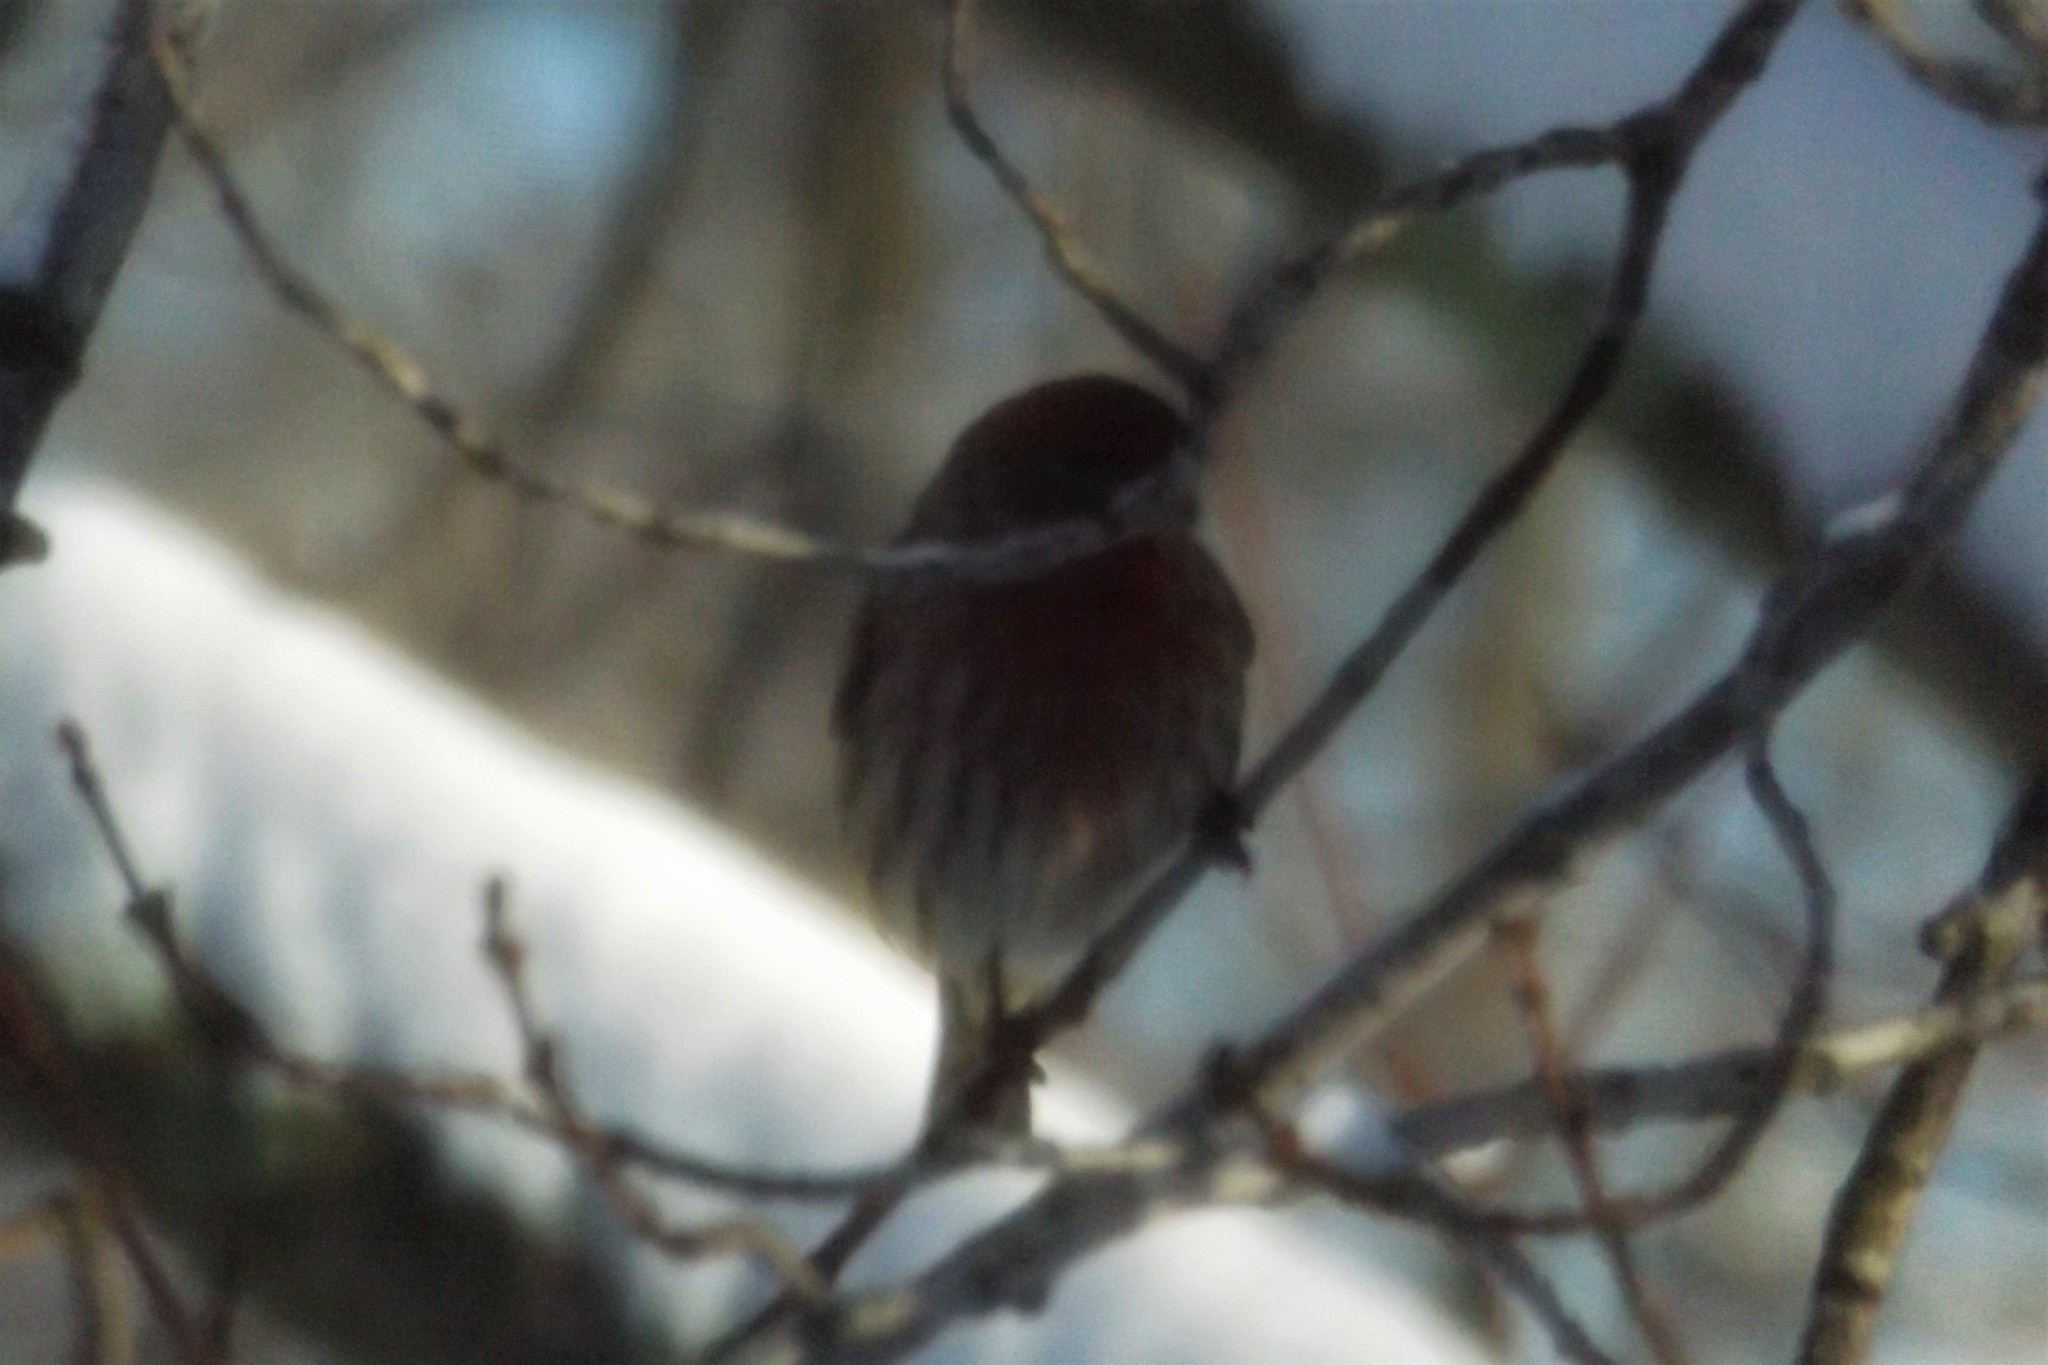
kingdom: Animalia
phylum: Chordata
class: Aves
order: Passeriformes
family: Fringillidae
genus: Haemorhous
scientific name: Haemorhous mexicanus
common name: House finch
